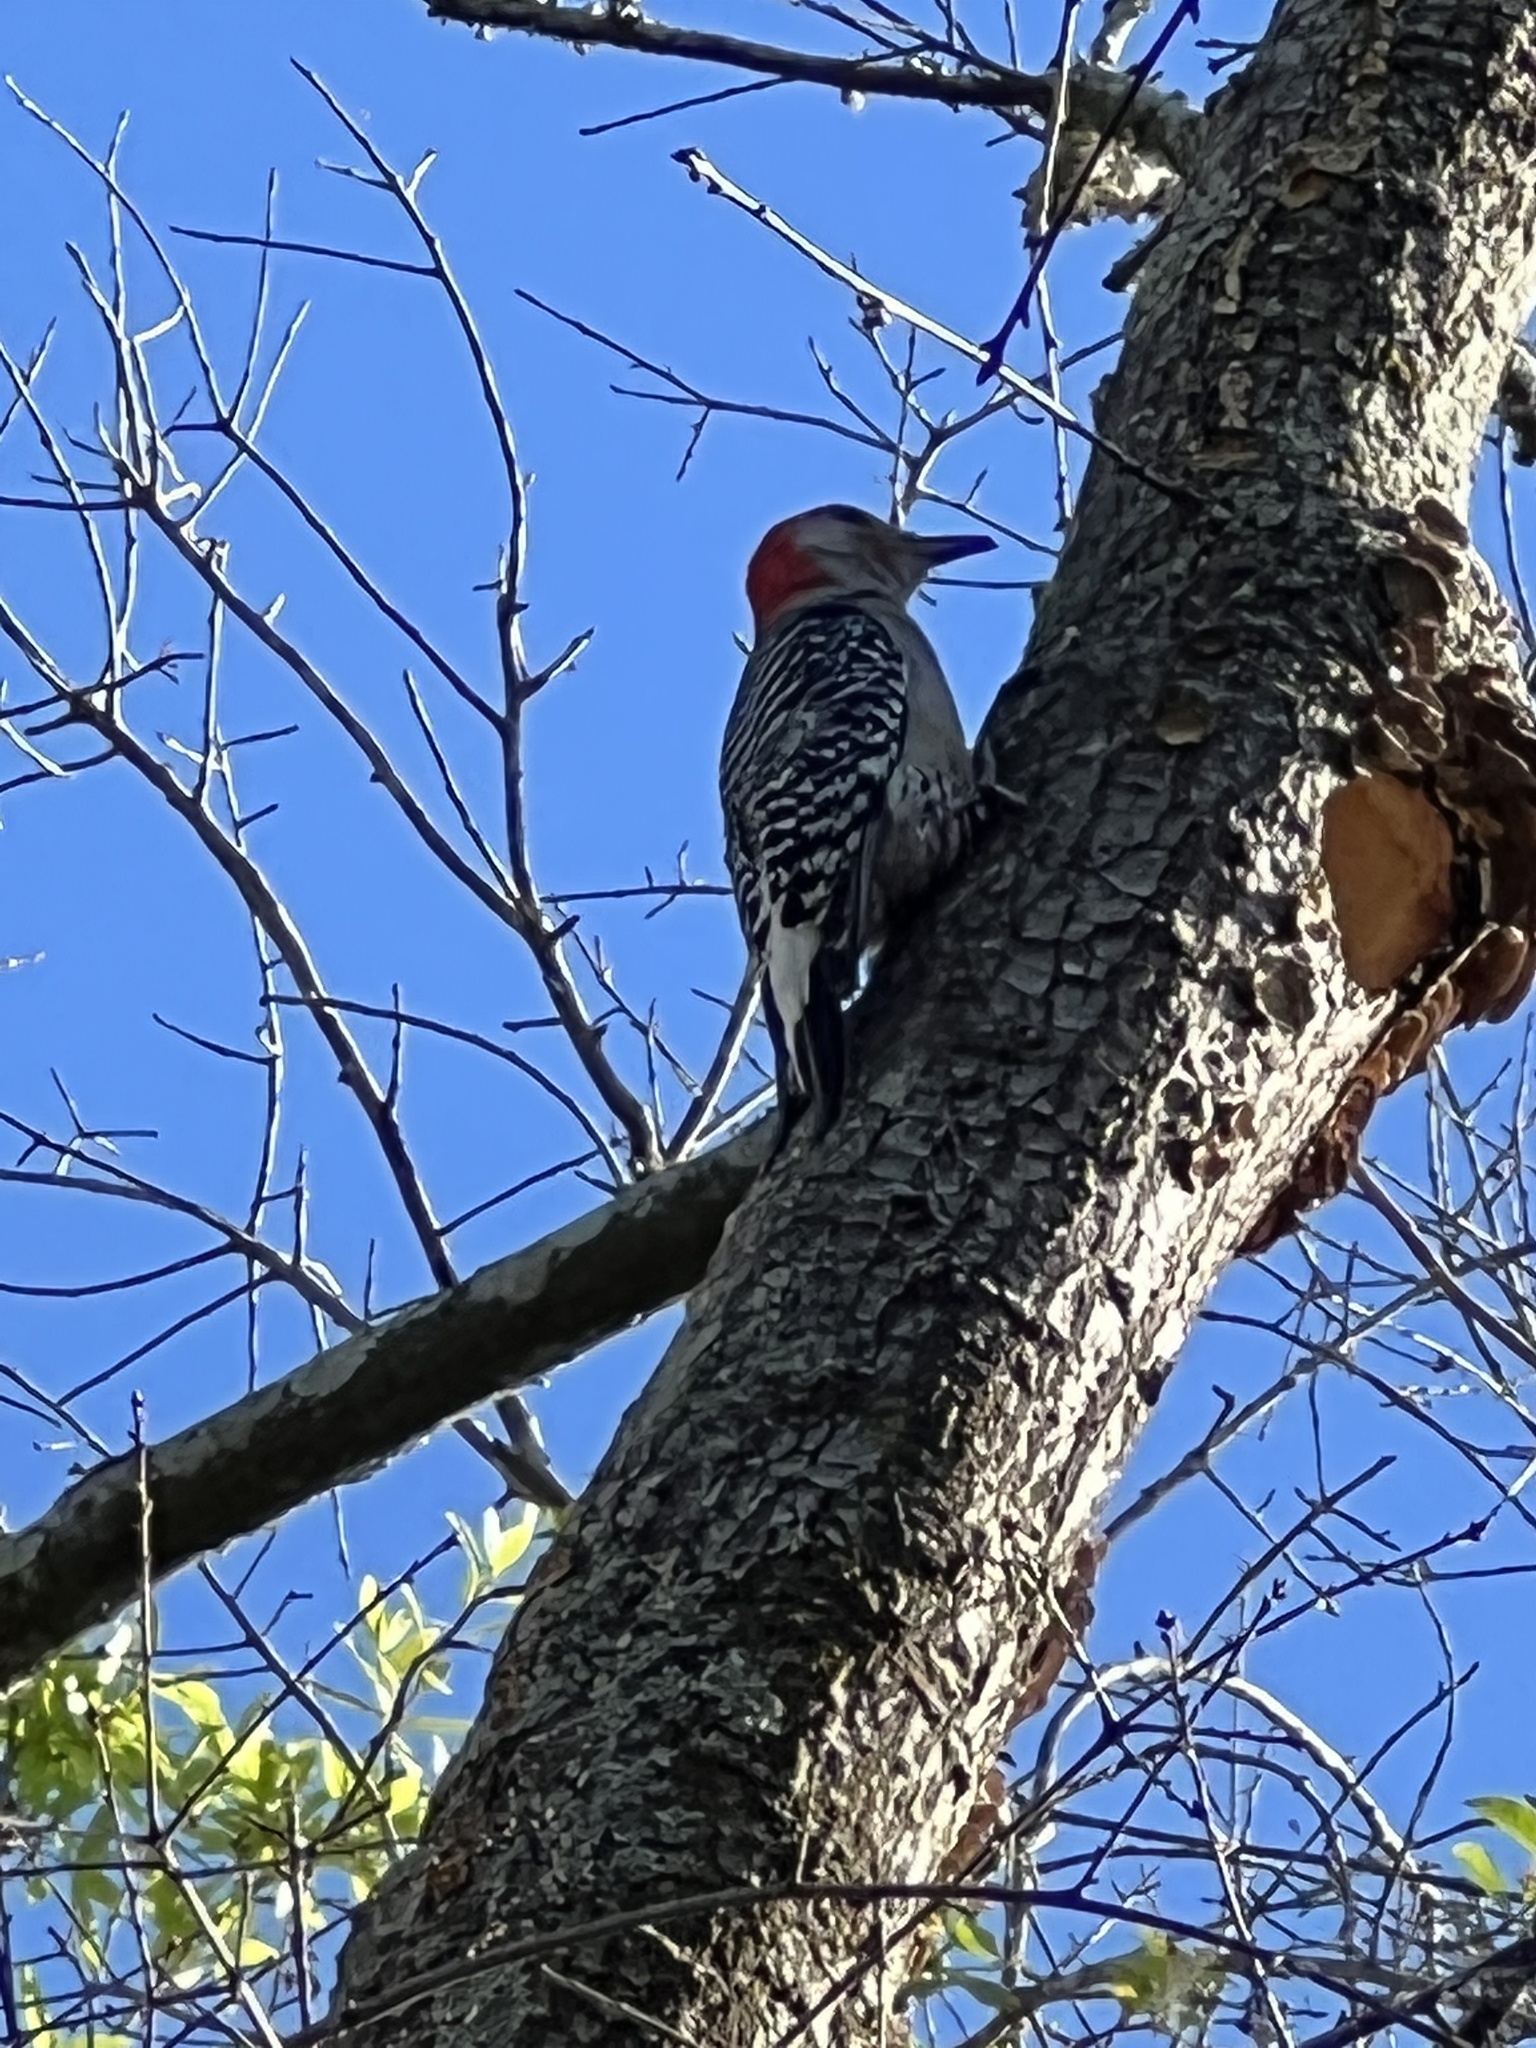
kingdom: Animalia
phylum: Chordata
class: Aves
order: Piciformes
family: Picidae
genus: Melanerpes
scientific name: Melanerpes carolinus
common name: Red-bellied woodpecker
